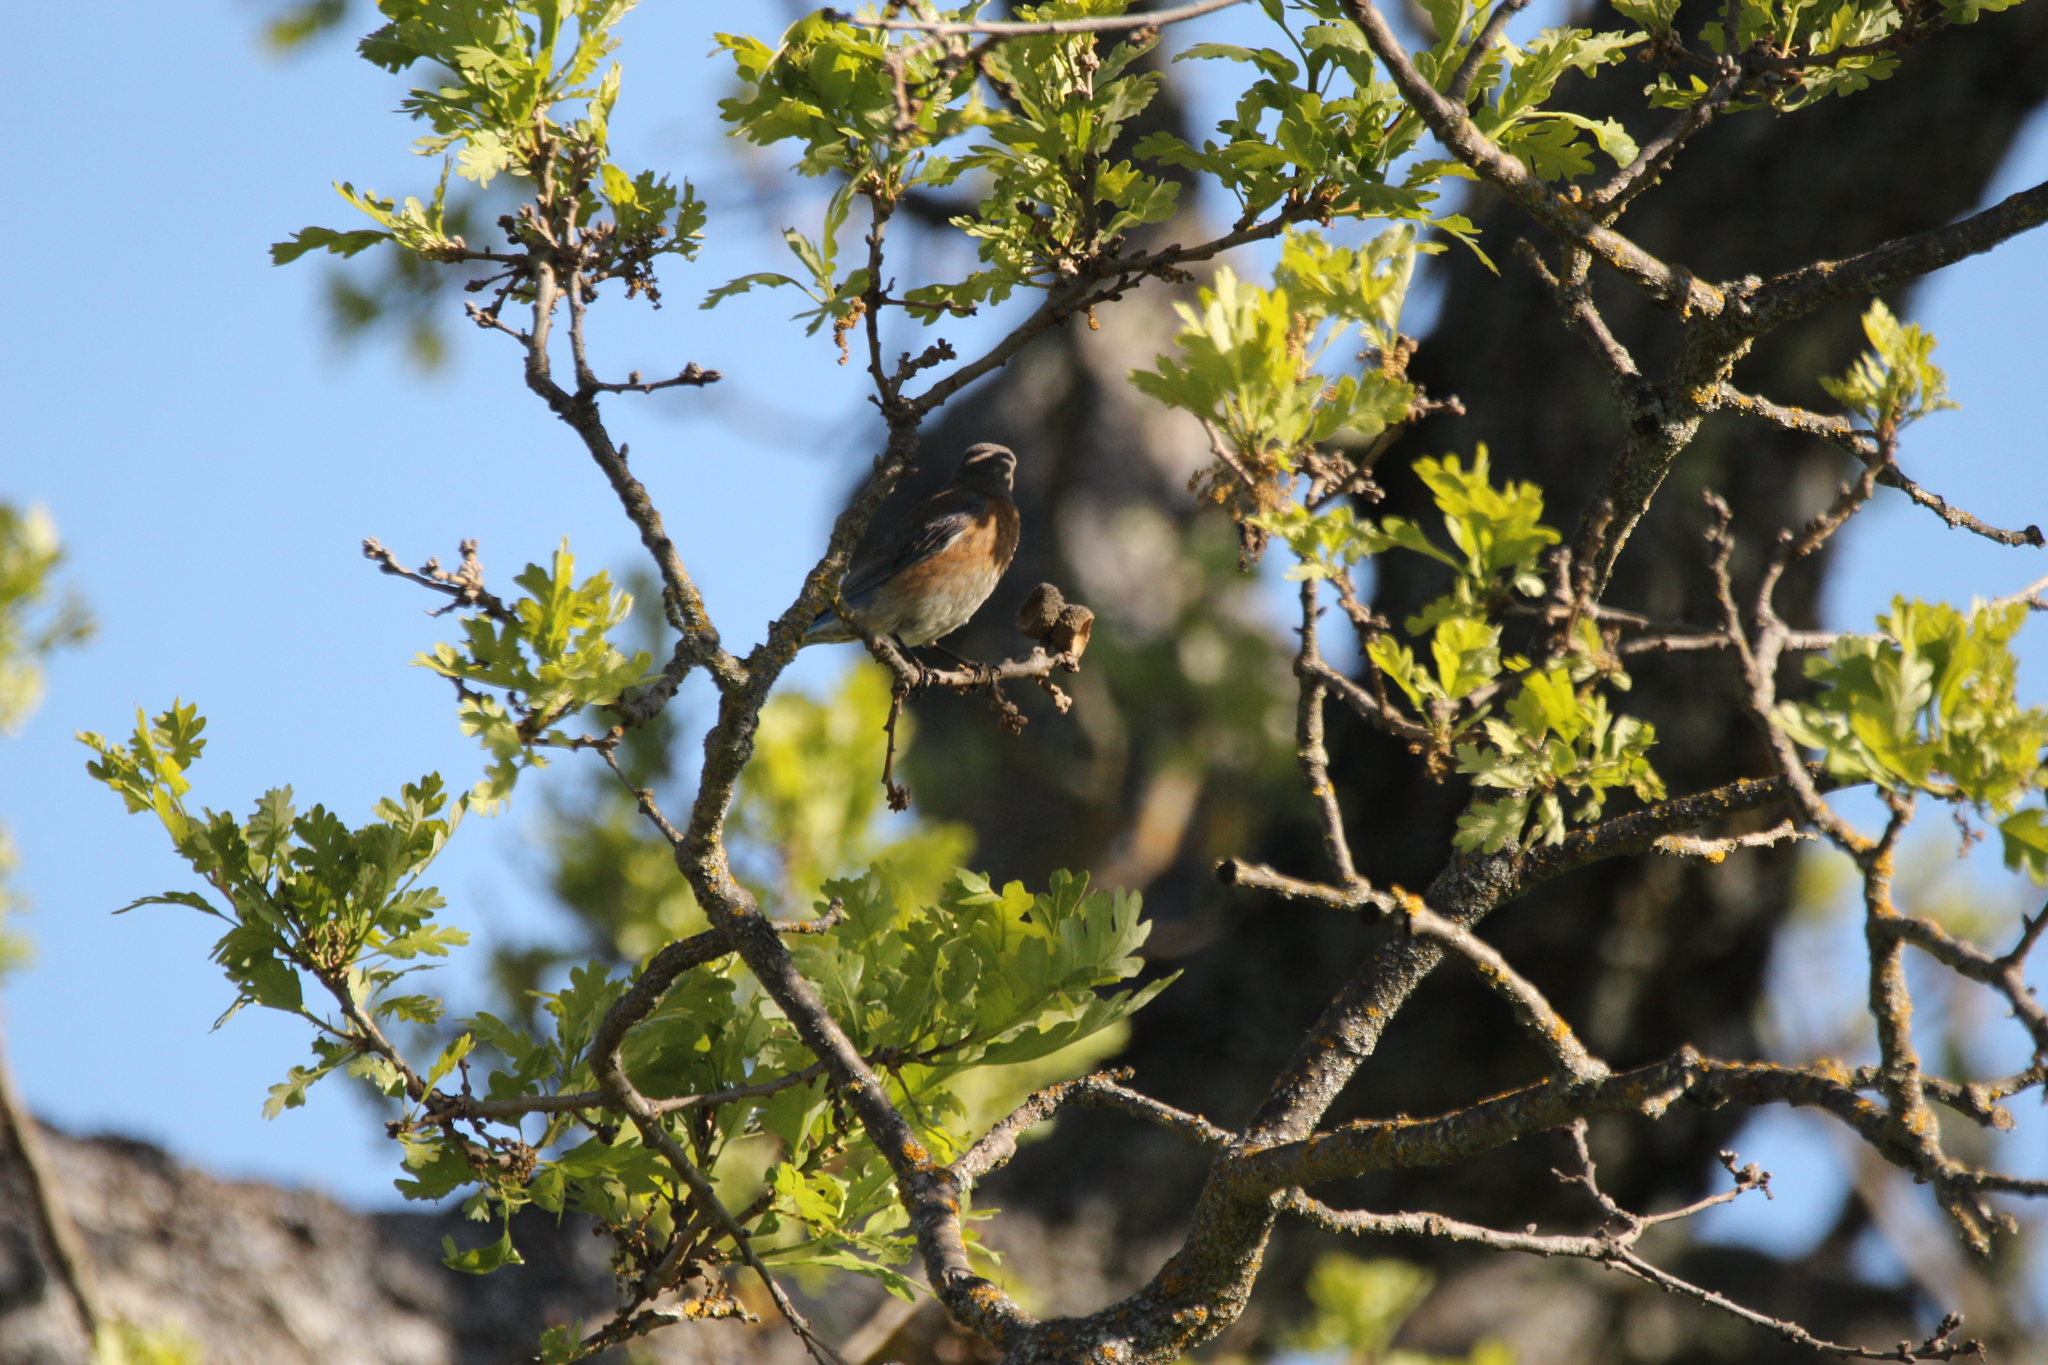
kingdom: Animalia
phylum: Chordata
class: Aves
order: Passeriformes
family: Turdidae
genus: Sialia
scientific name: Sialia mexicana
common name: Western bluebird
